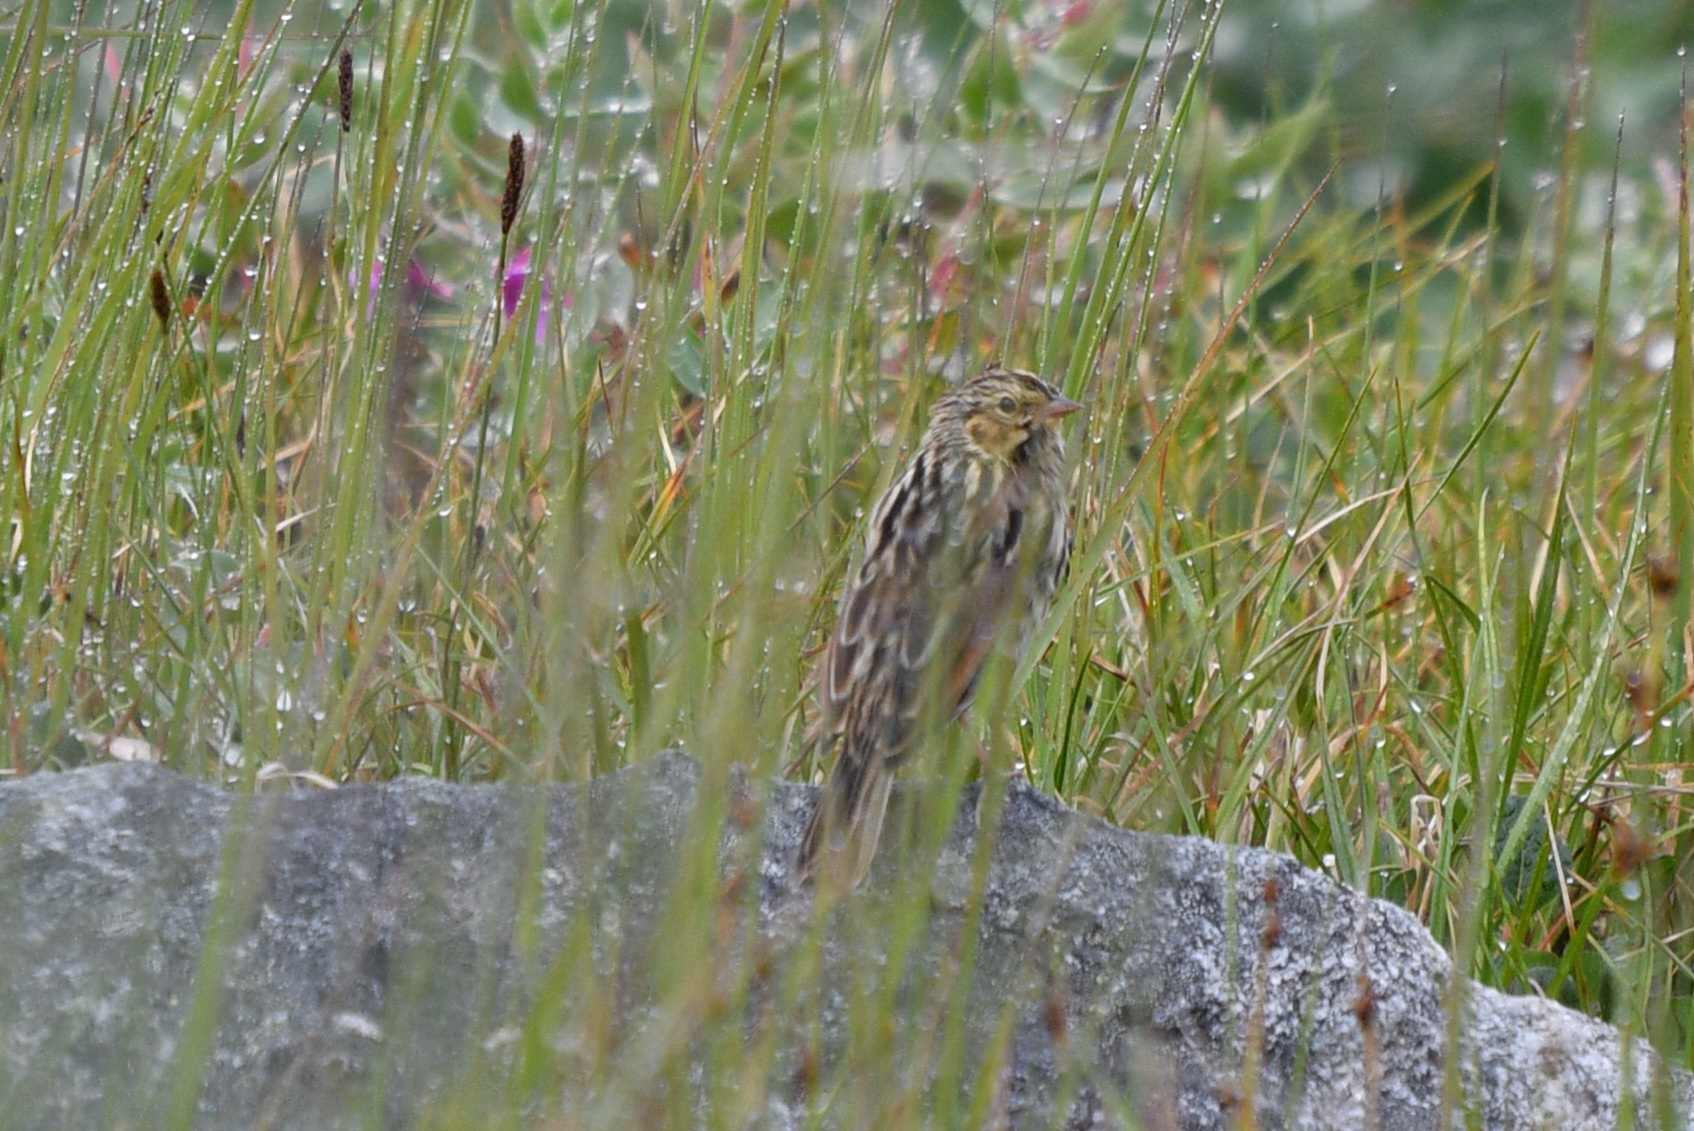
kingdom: Animalia
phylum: Chordata
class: Aves
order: Passeriformes
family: Passerellidae
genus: Passerculus
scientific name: Passerculus sandwichensis
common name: Savannah sparrow
